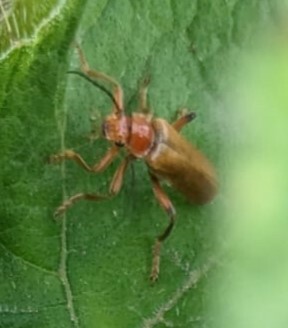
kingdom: Animalia
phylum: Arthropoda
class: Insecta
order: Coleoptera
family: Cantharidae
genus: Cantharis
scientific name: Cantharis livida
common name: Livid soldier beetle
